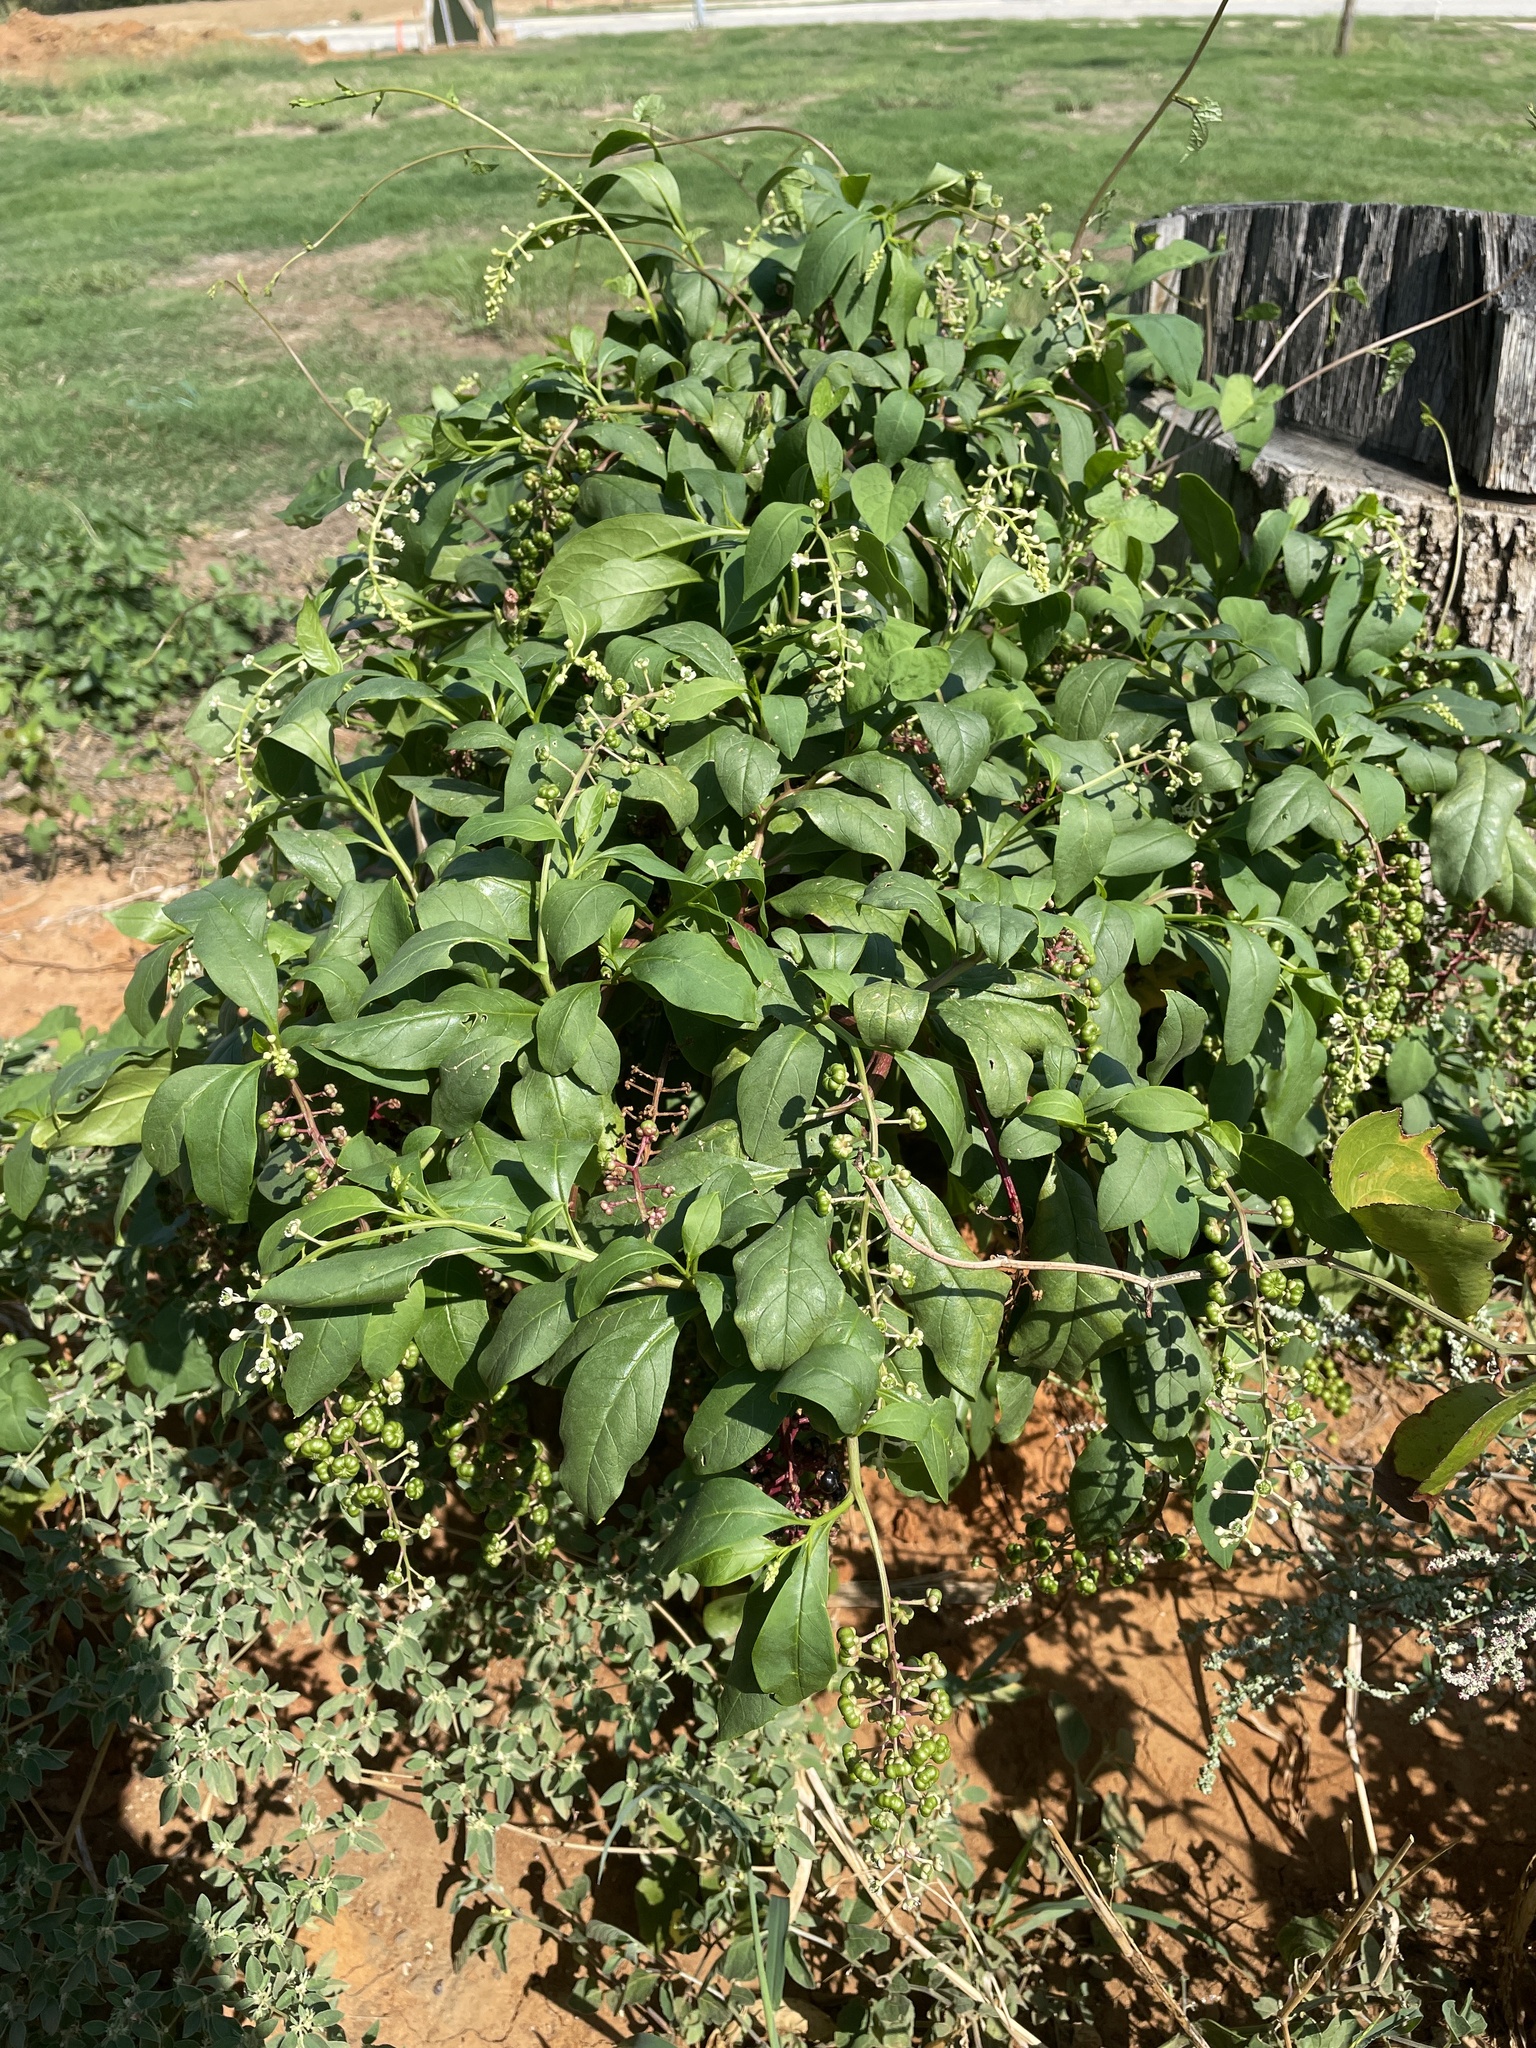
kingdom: Plantae
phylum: Tracheophyta
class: Magnoliopsida
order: Caryophyllales
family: Phytolaccaceae
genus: Phytolacca
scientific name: Phytolacca americana
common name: American pokeweed
